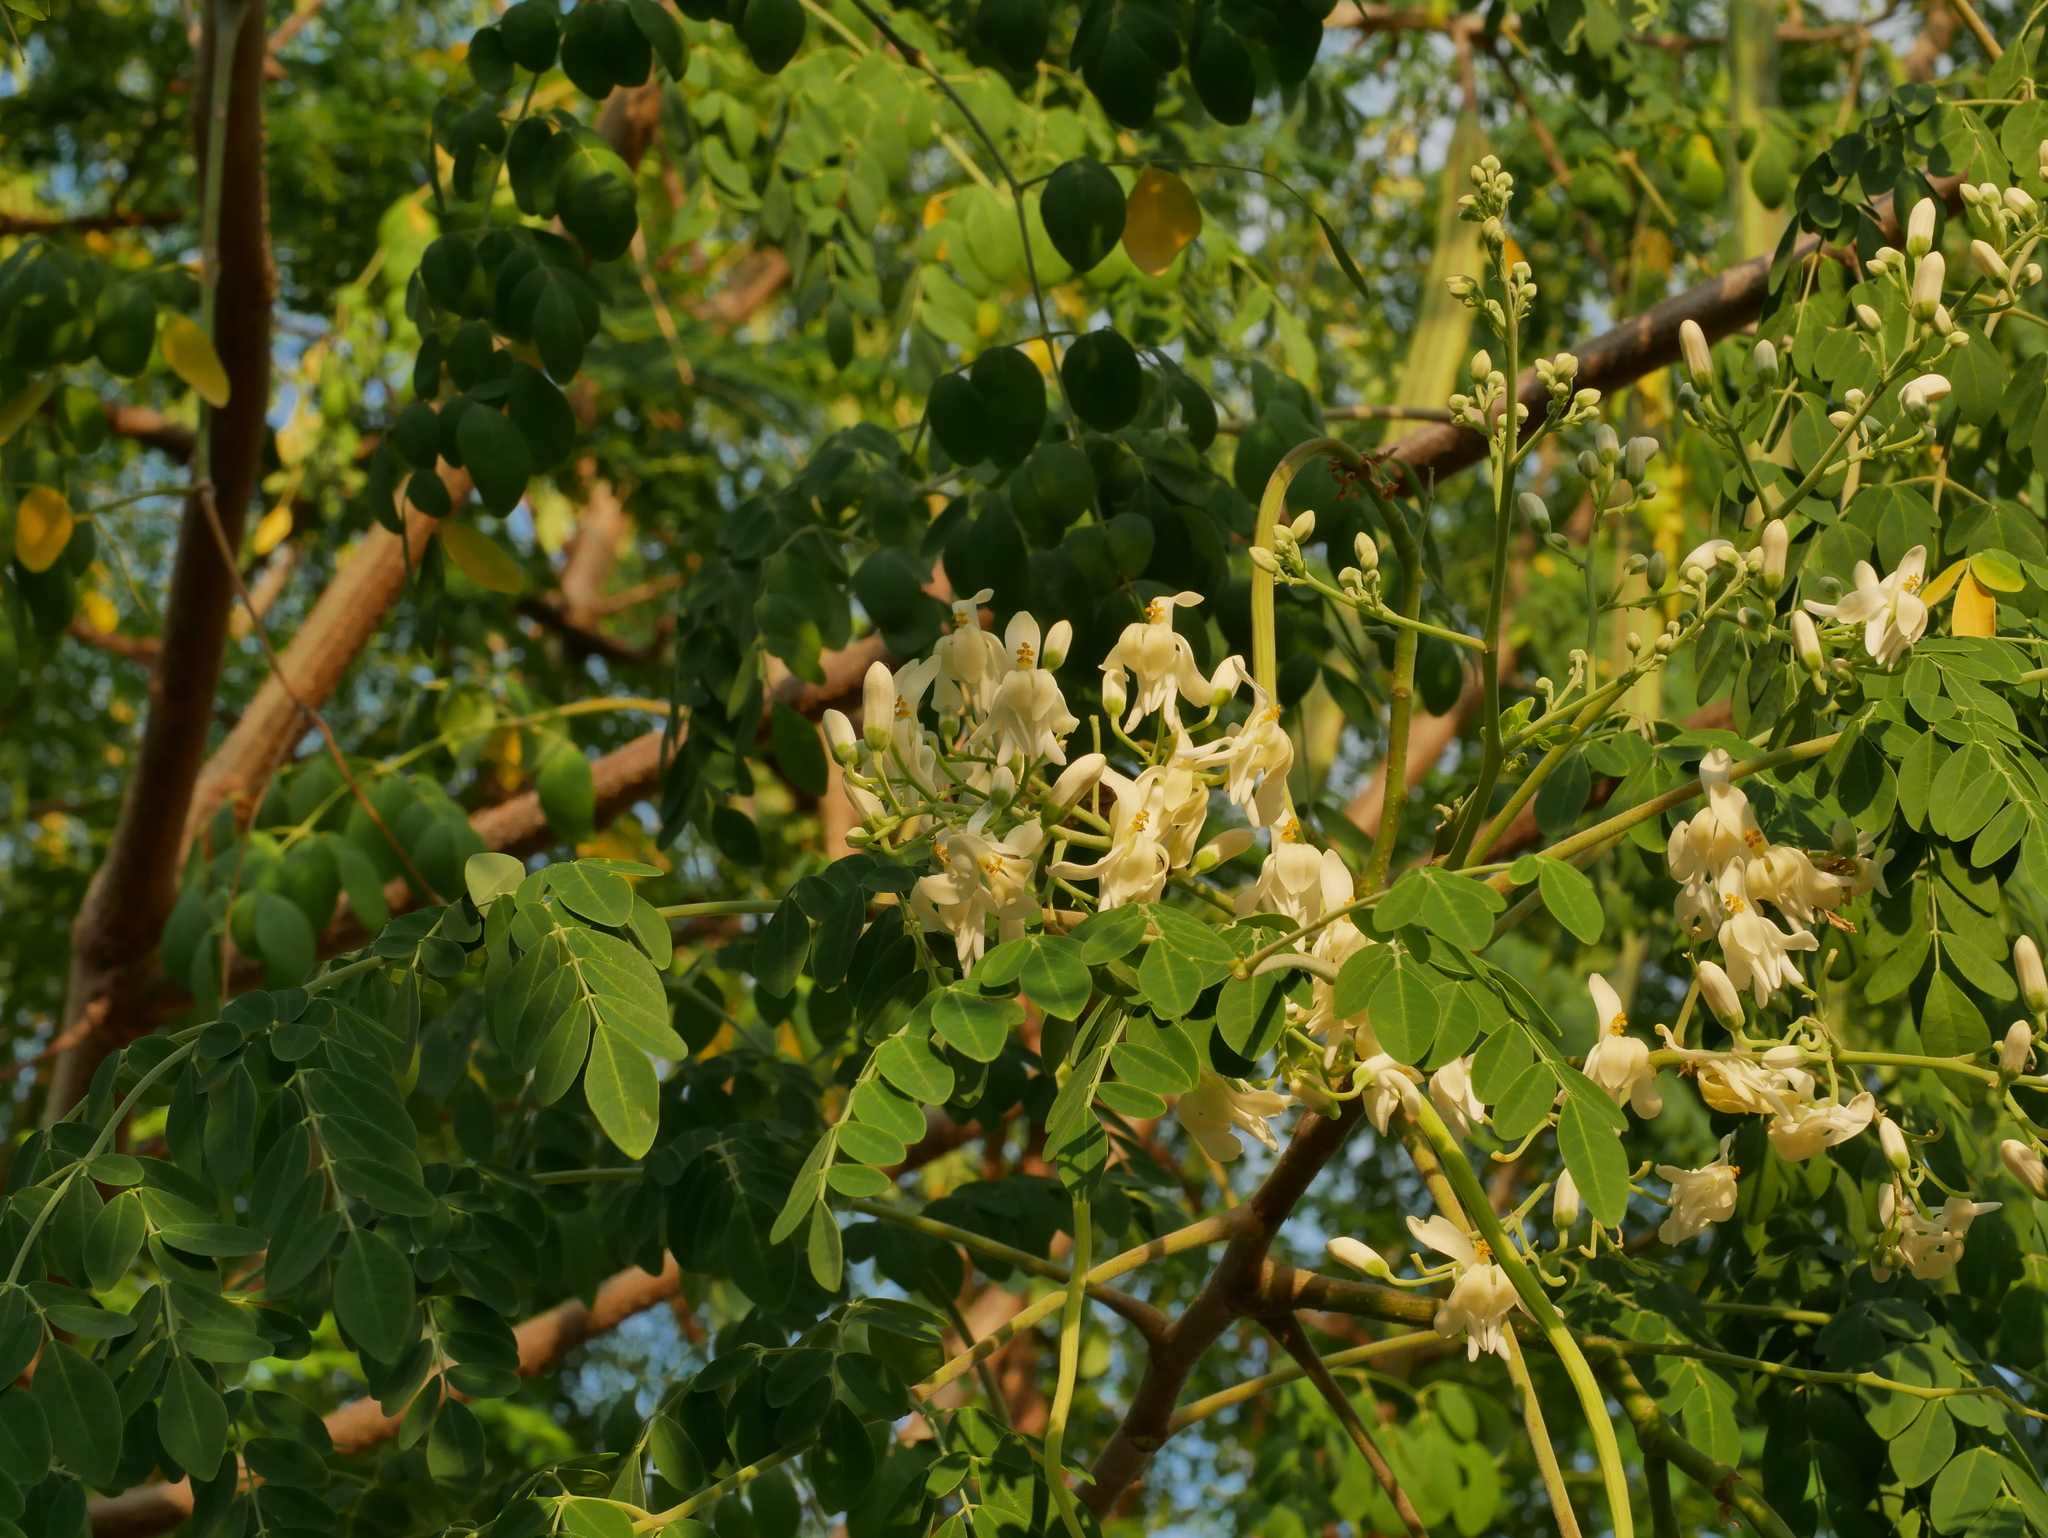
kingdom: Plantae
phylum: Tracheophyta
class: Magnoliopsida
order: Brassicales
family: Moringaceae
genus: Moringa
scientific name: Moringa oleifera
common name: Horseradish-tree
